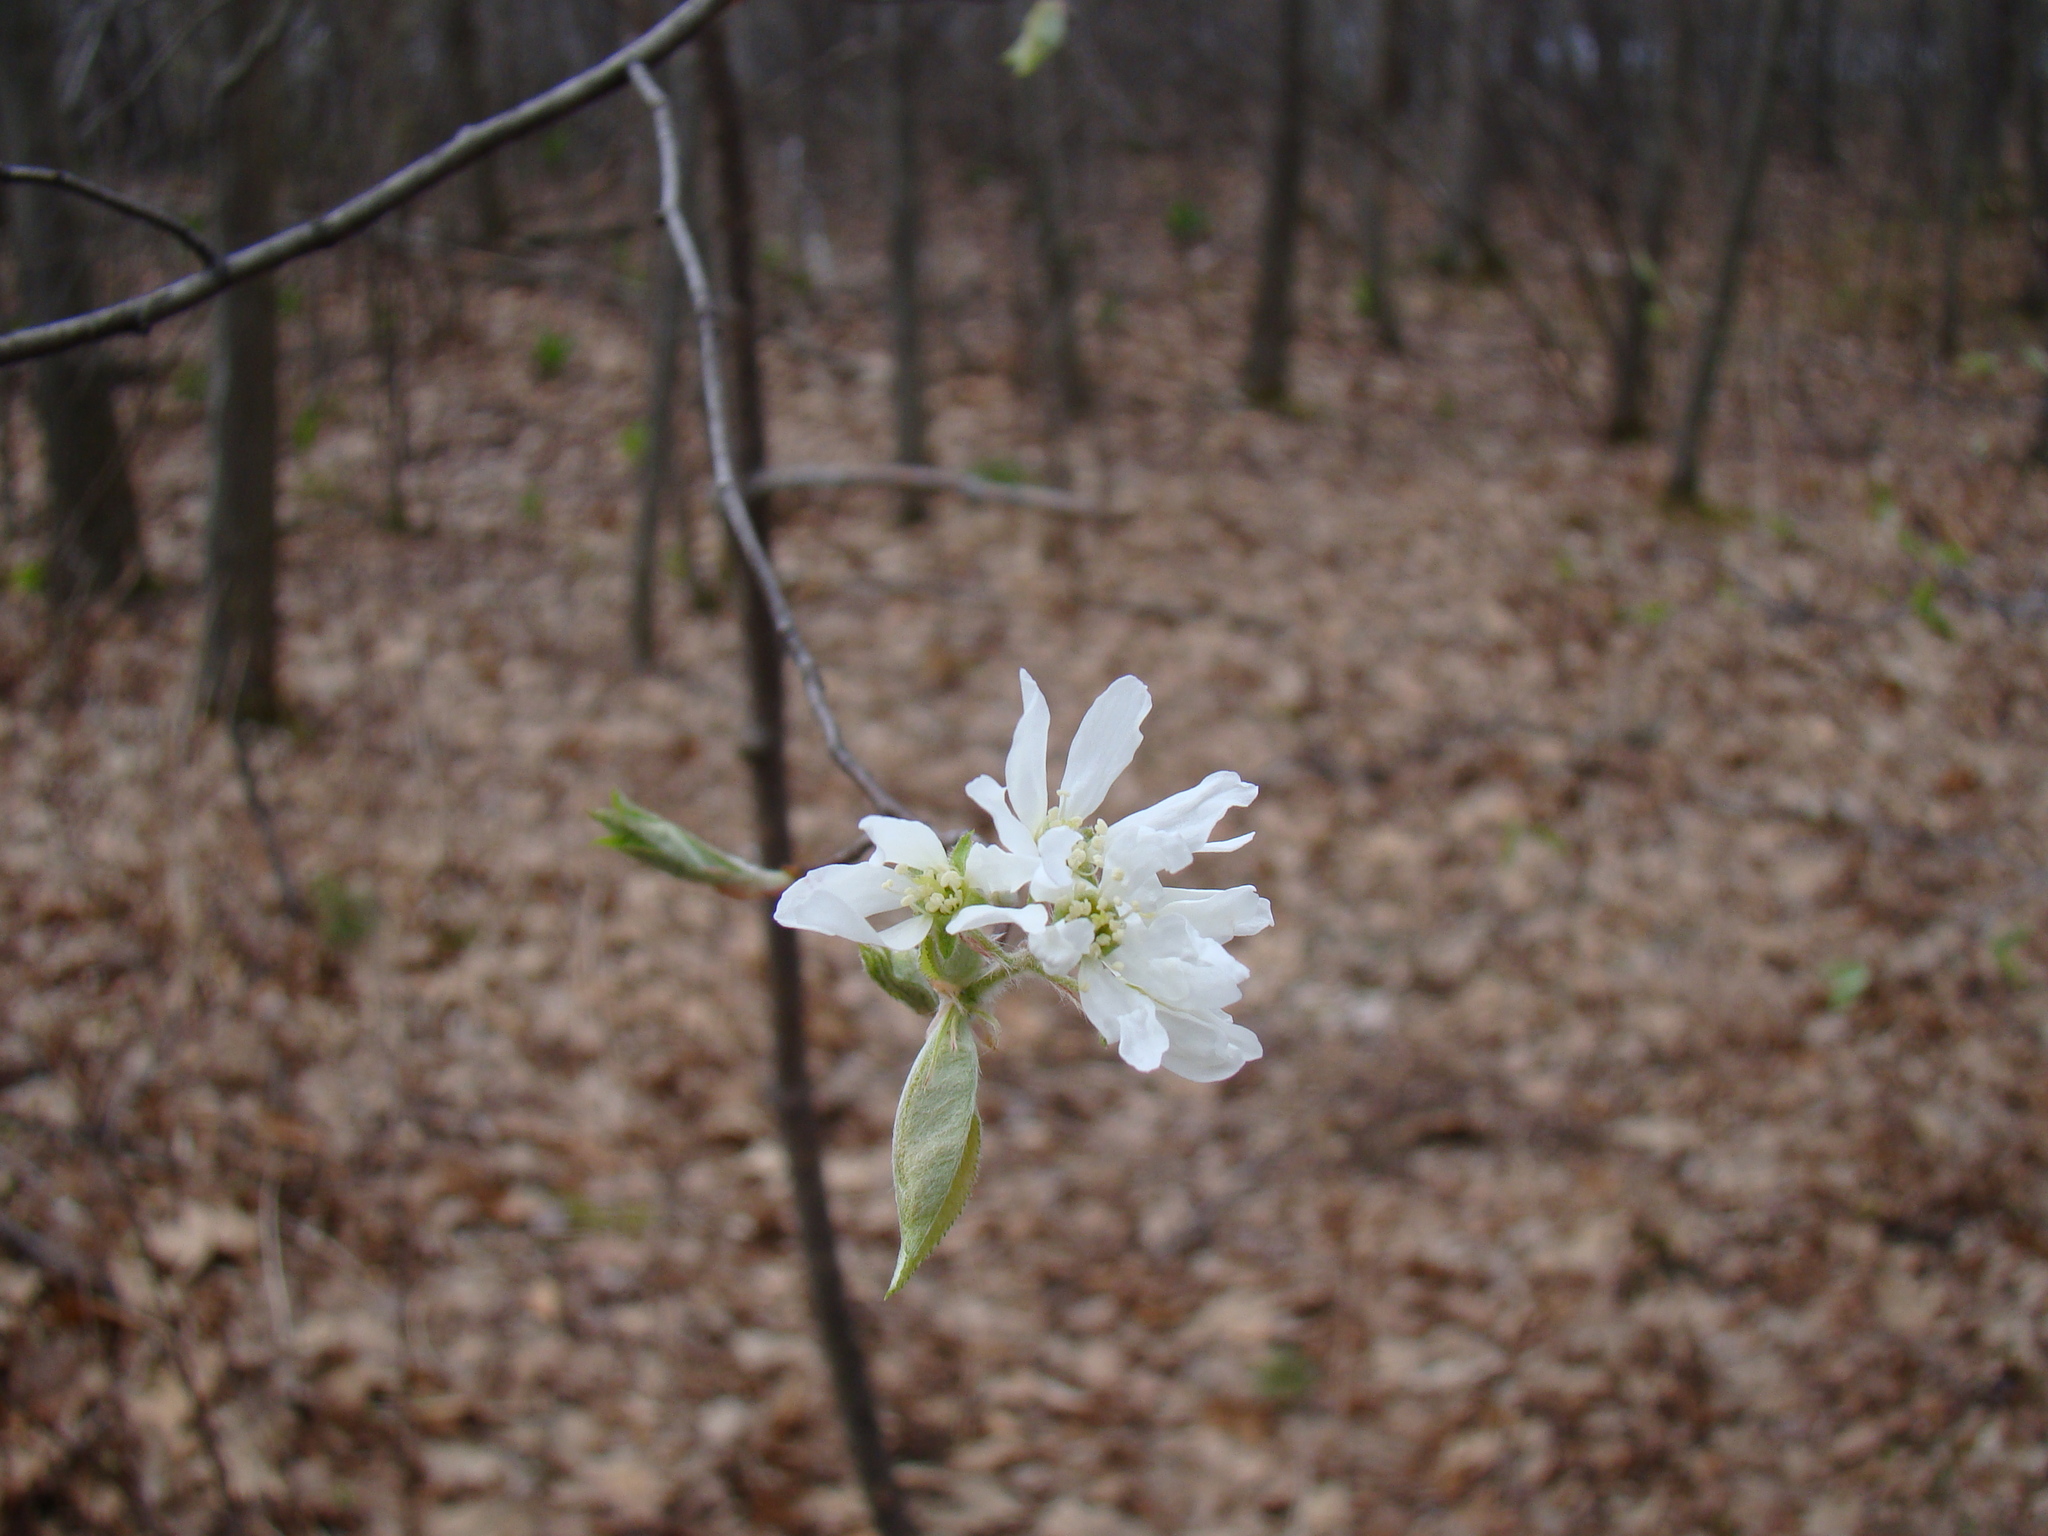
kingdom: Plantae
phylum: Tracheophyta
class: Magnoliopsida
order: Rosales
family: Rosaceae
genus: Amelanchier
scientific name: Amelanchier arborea
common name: Downy serviceberry
